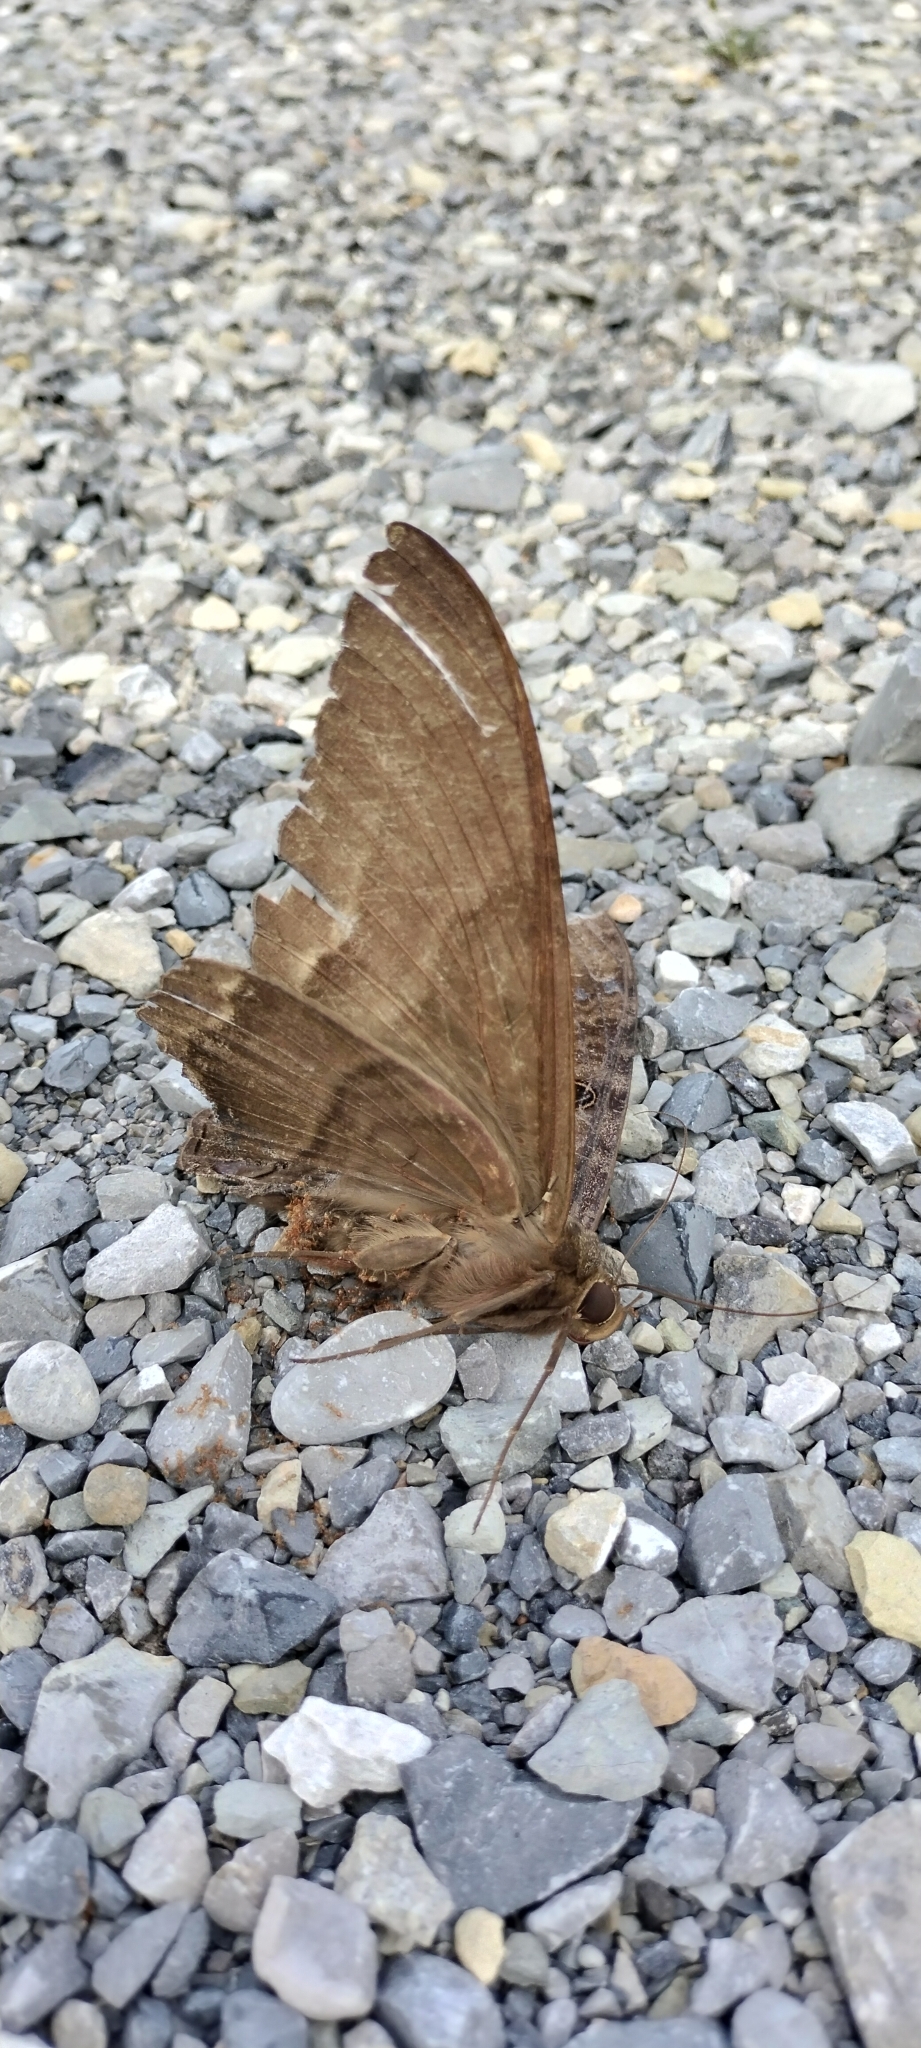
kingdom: Animalia
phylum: Arthropoda
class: Insecta
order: Lepidoptera
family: Erebidae
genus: Ascalapha
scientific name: Ascalapha odorata
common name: Black witch
